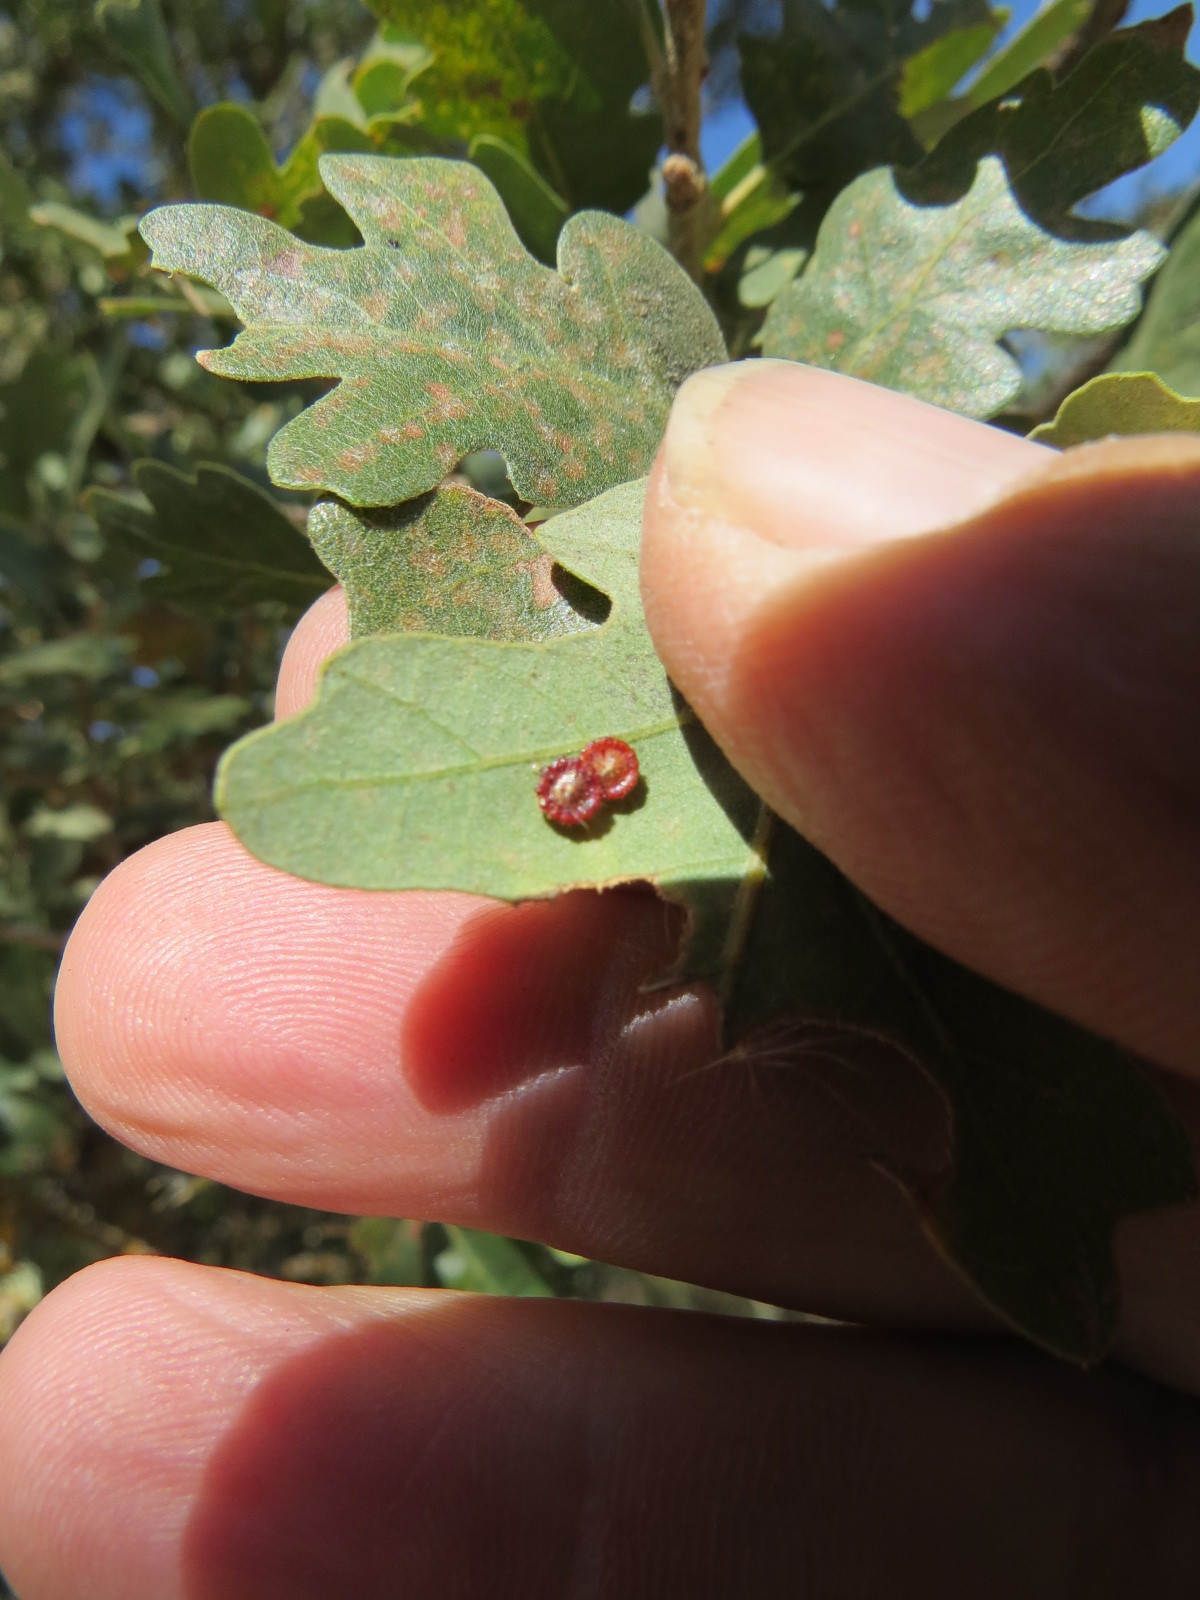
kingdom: Animalia
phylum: Arthropoda
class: Insecta
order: Hymenoptera
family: Cynipidae
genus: Andricus
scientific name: Andricus
